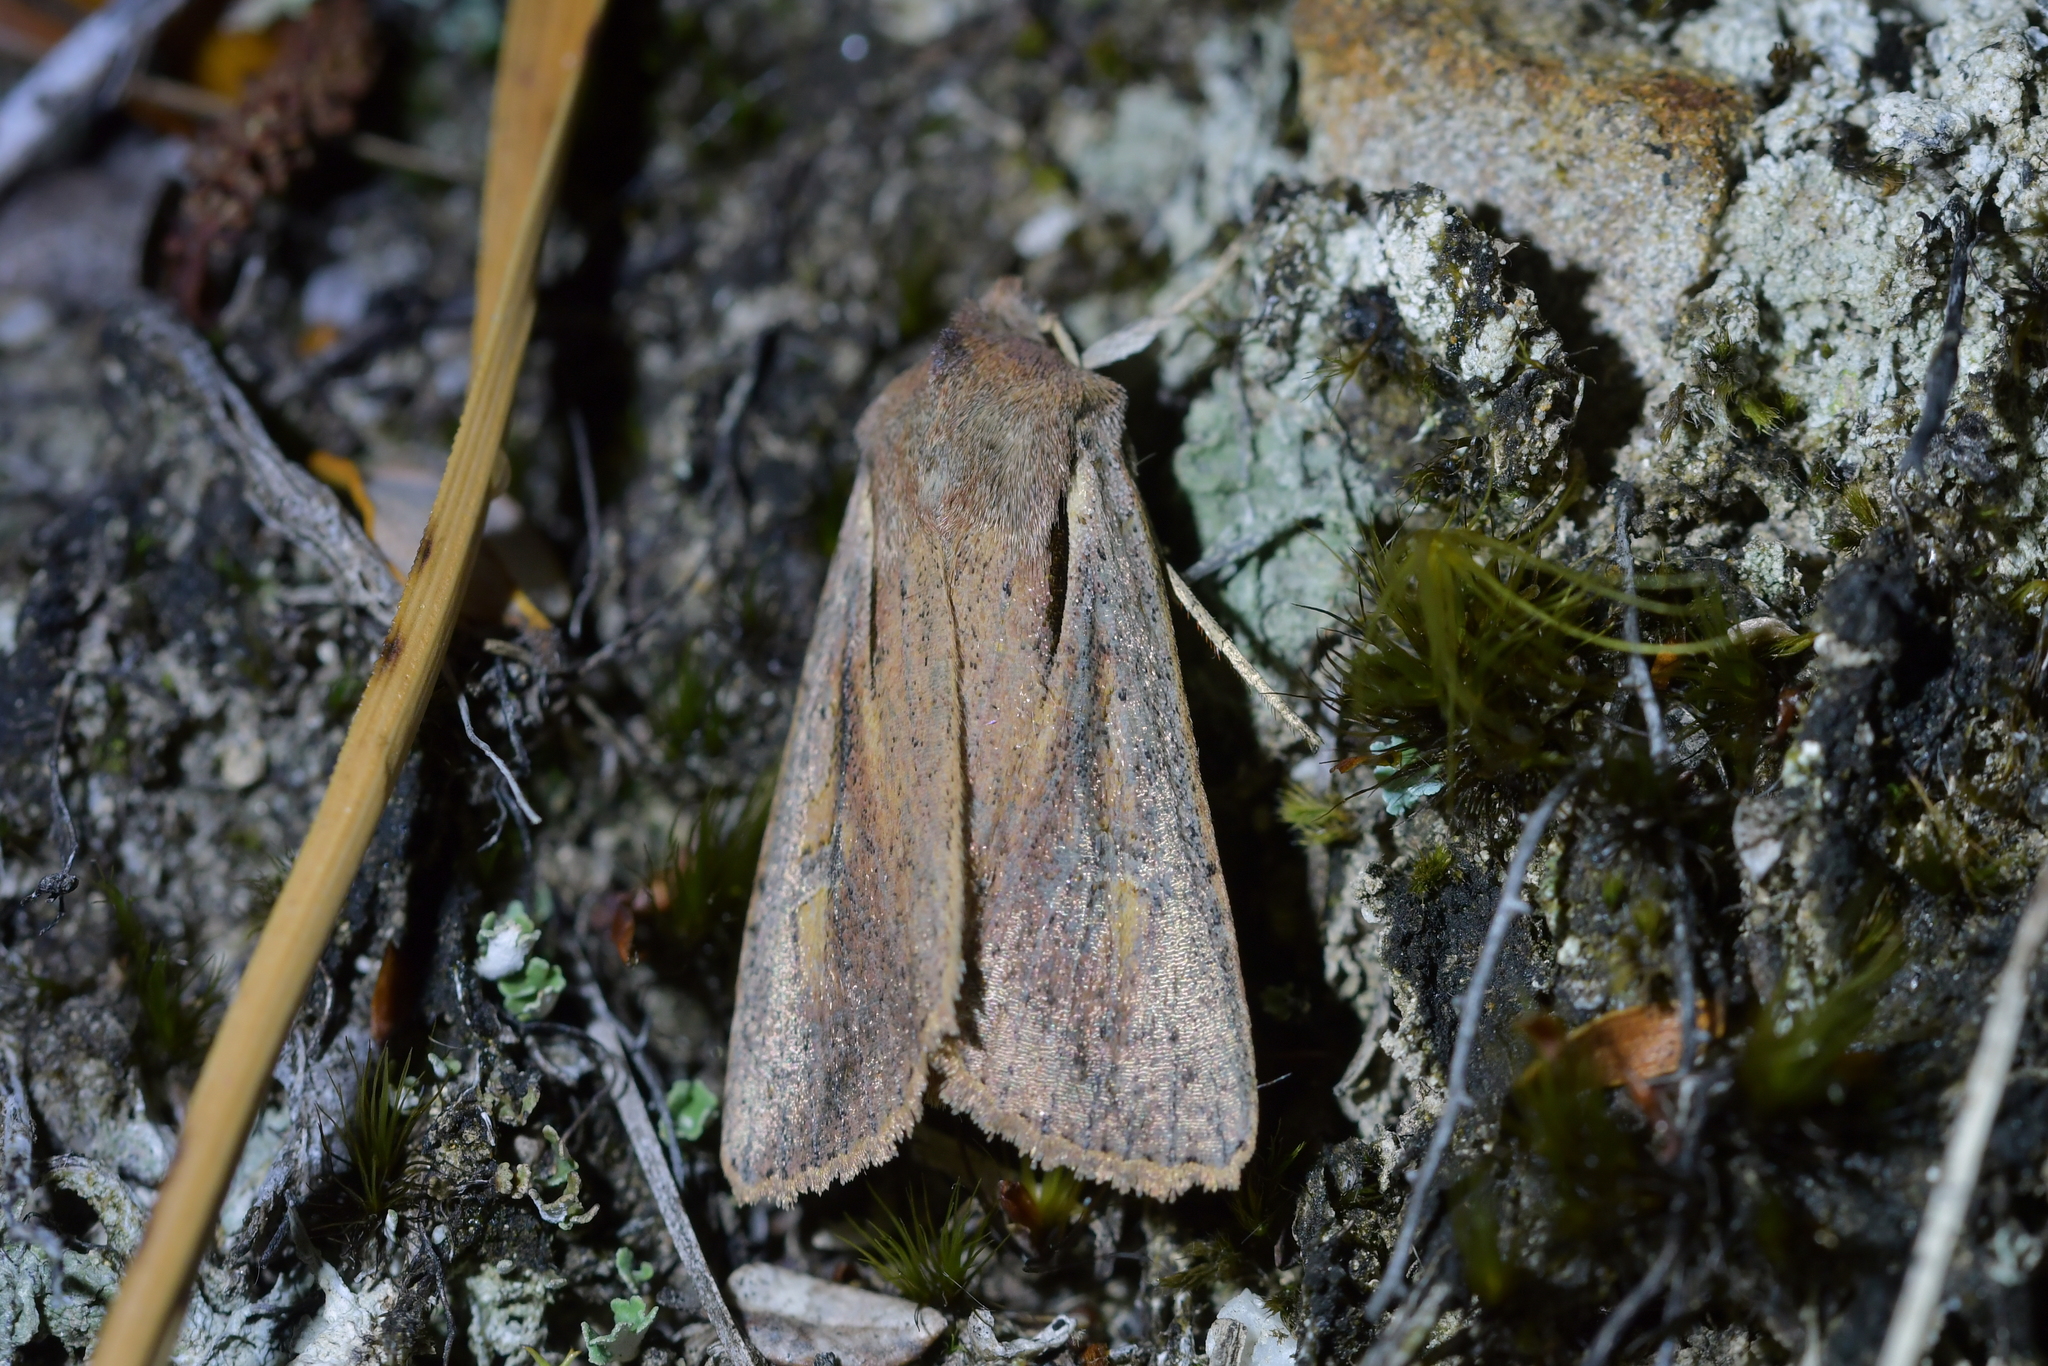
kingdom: Animalia
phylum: Arthropoda
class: Insecta
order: Lepidoptera
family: Noctuidae
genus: Ichneutica
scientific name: Ichneutica atristriga
